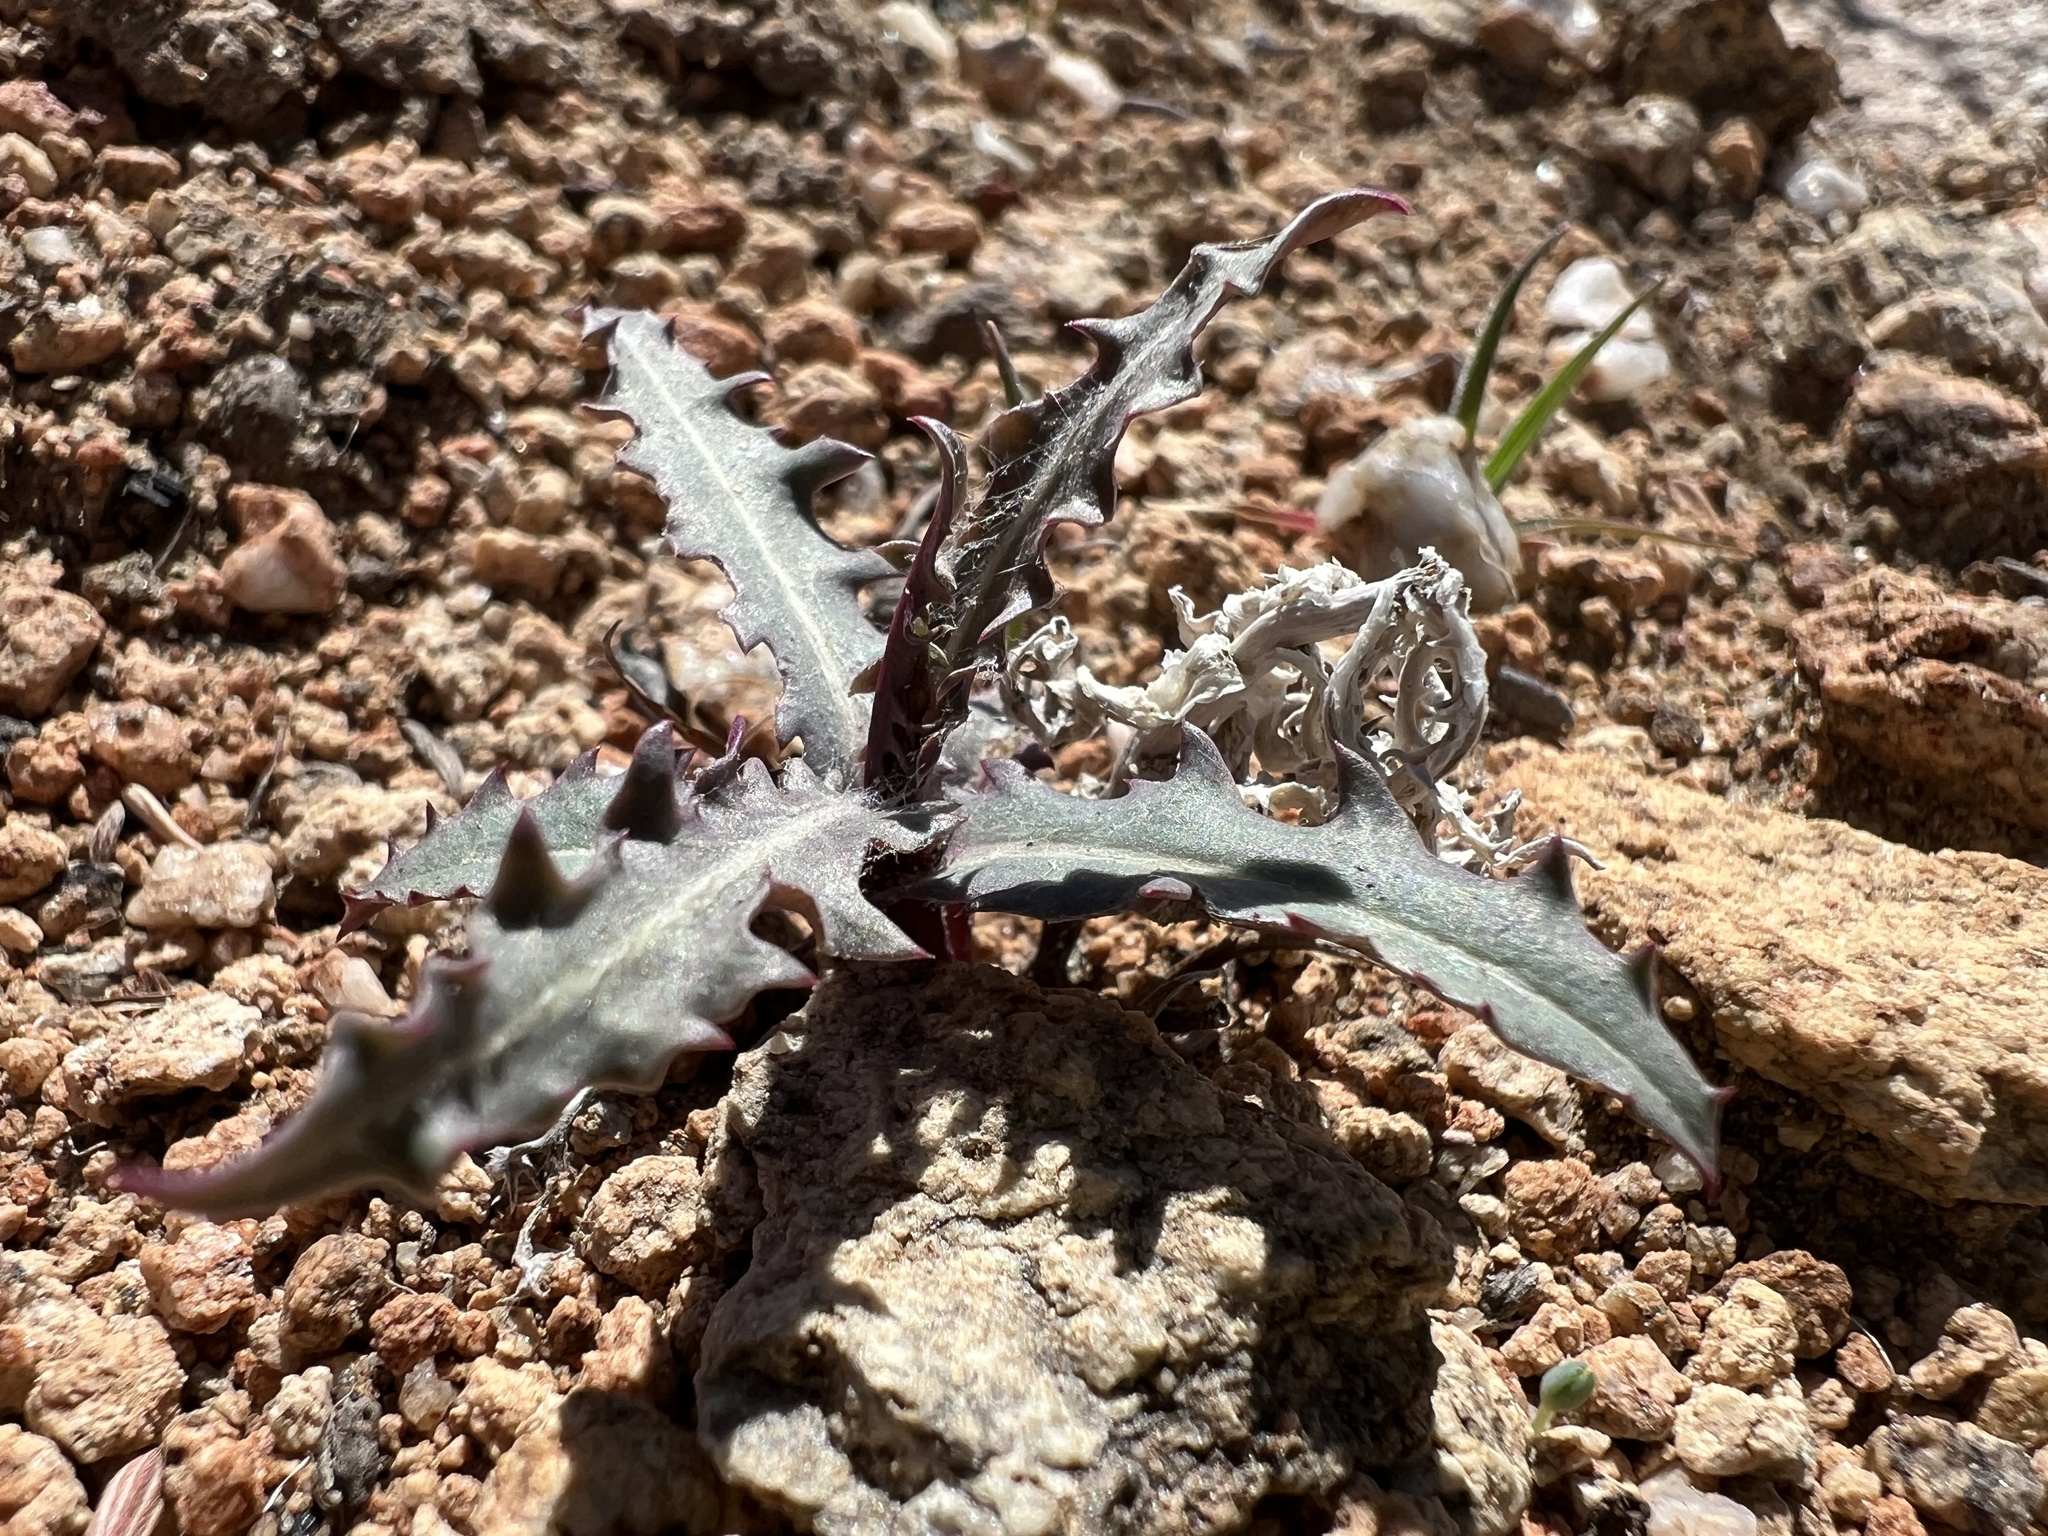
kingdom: Plantae
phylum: Tracheophyta
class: Magnoliopsida
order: Asterales
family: Asteraceae
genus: Stephanomeria
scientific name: Stephanomeria parryi
